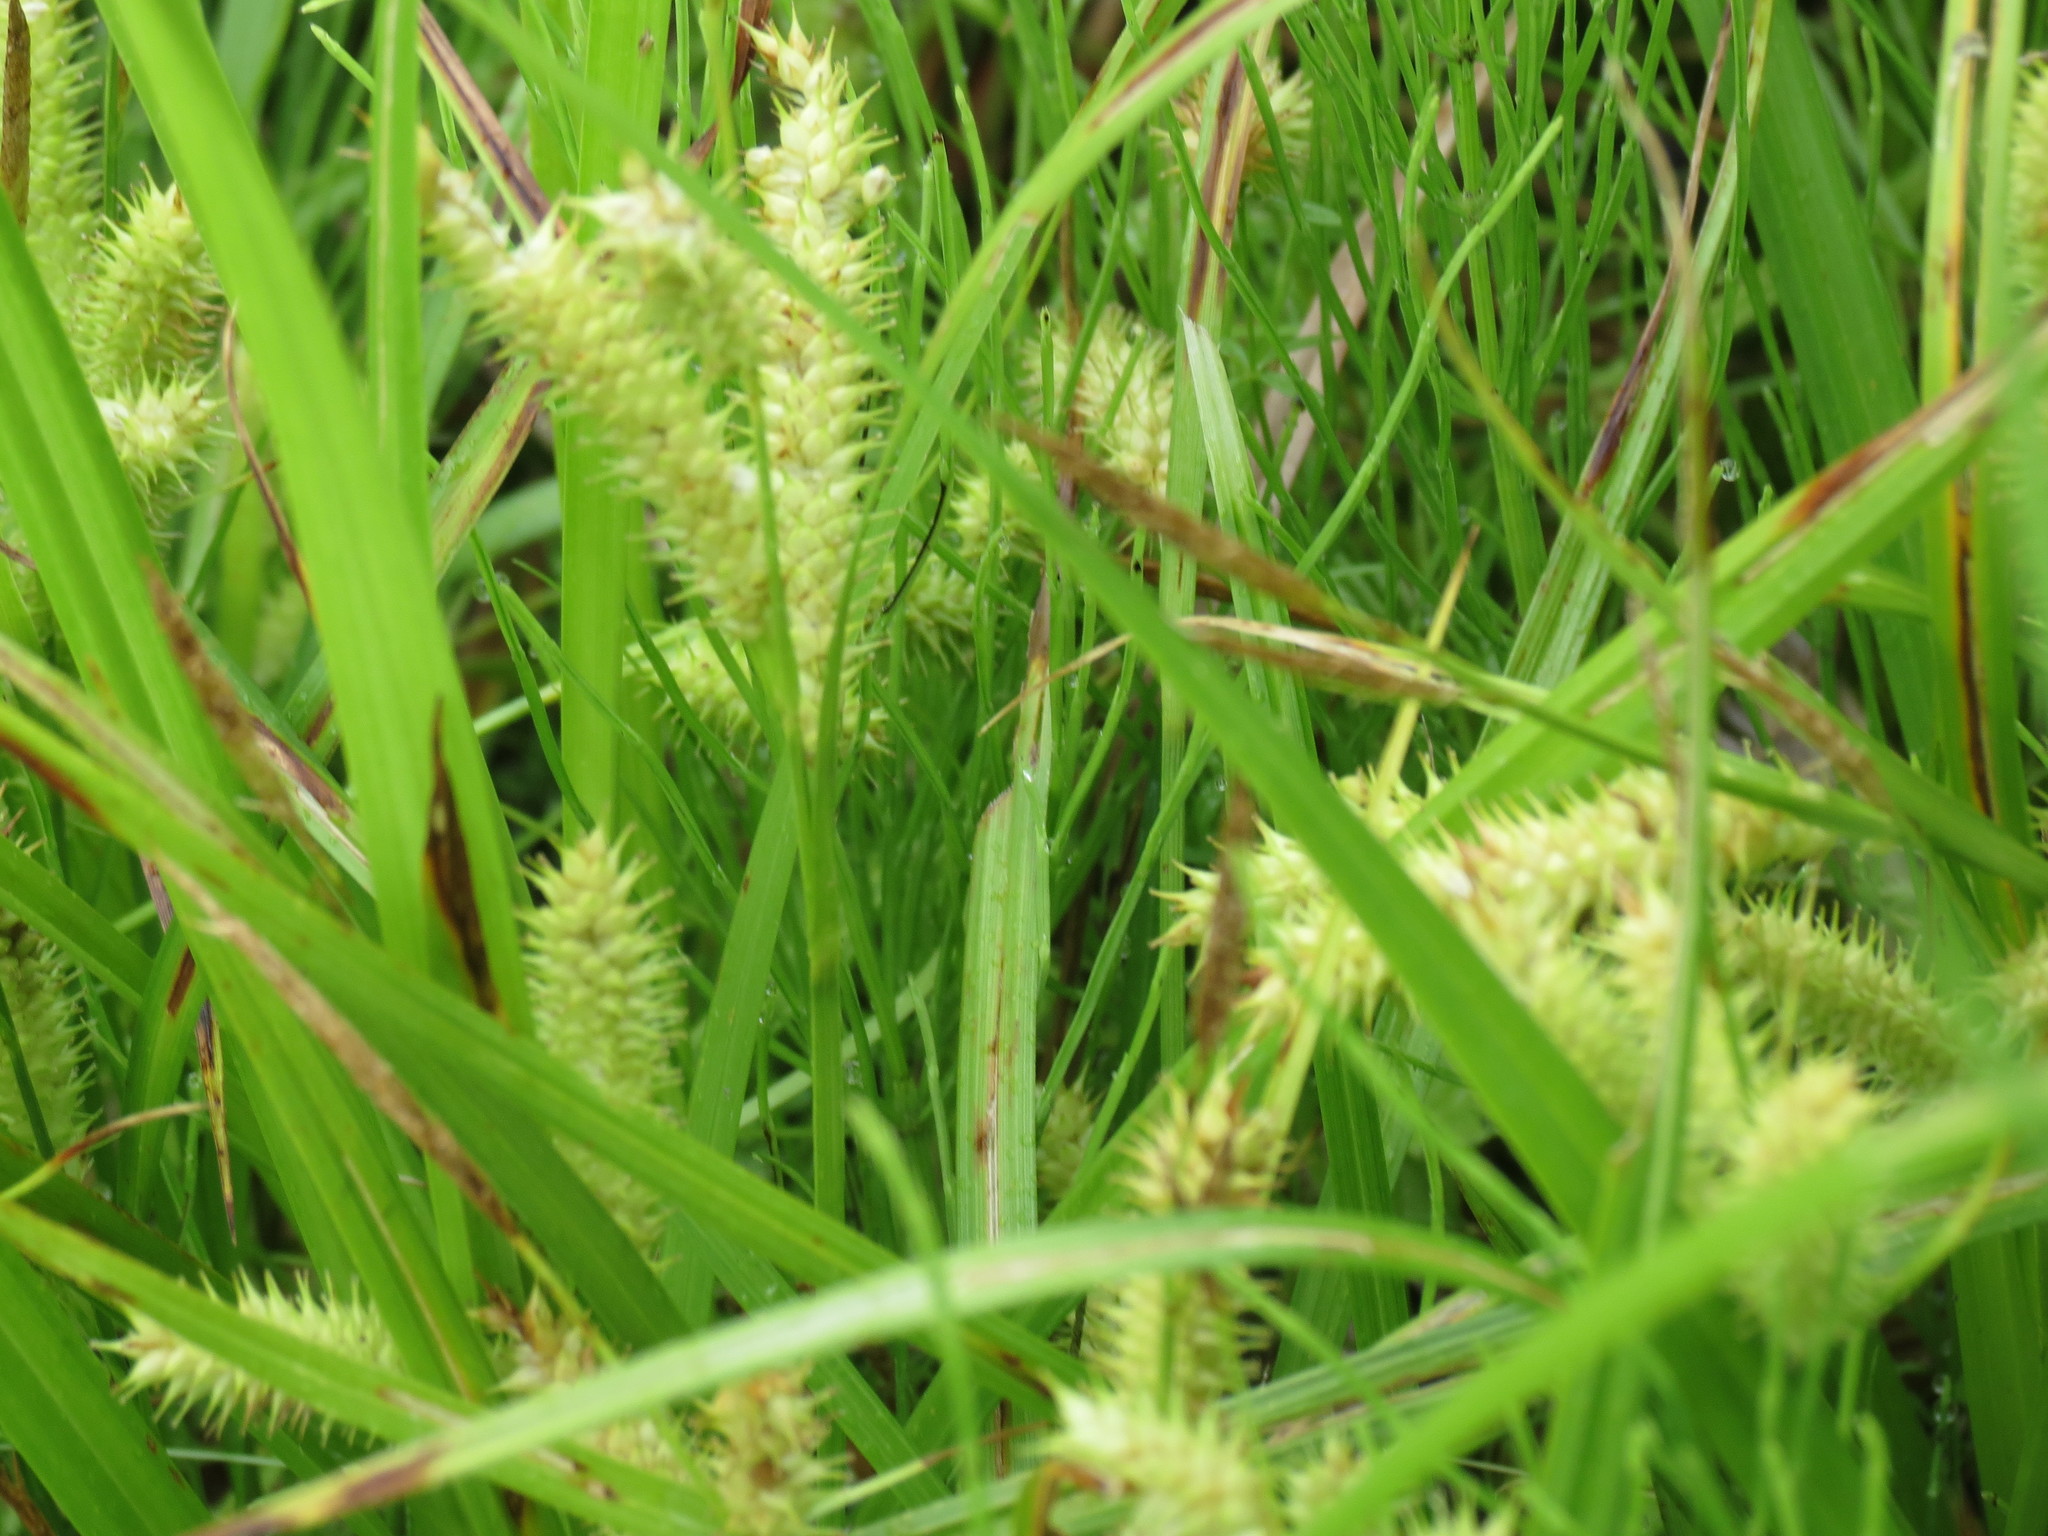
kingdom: Plantae
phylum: Tracheophyta
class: Liliopsida
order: Poales
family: Cyperaceae
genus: Carex
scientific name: Carex utriculata
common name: Beaked sedge
